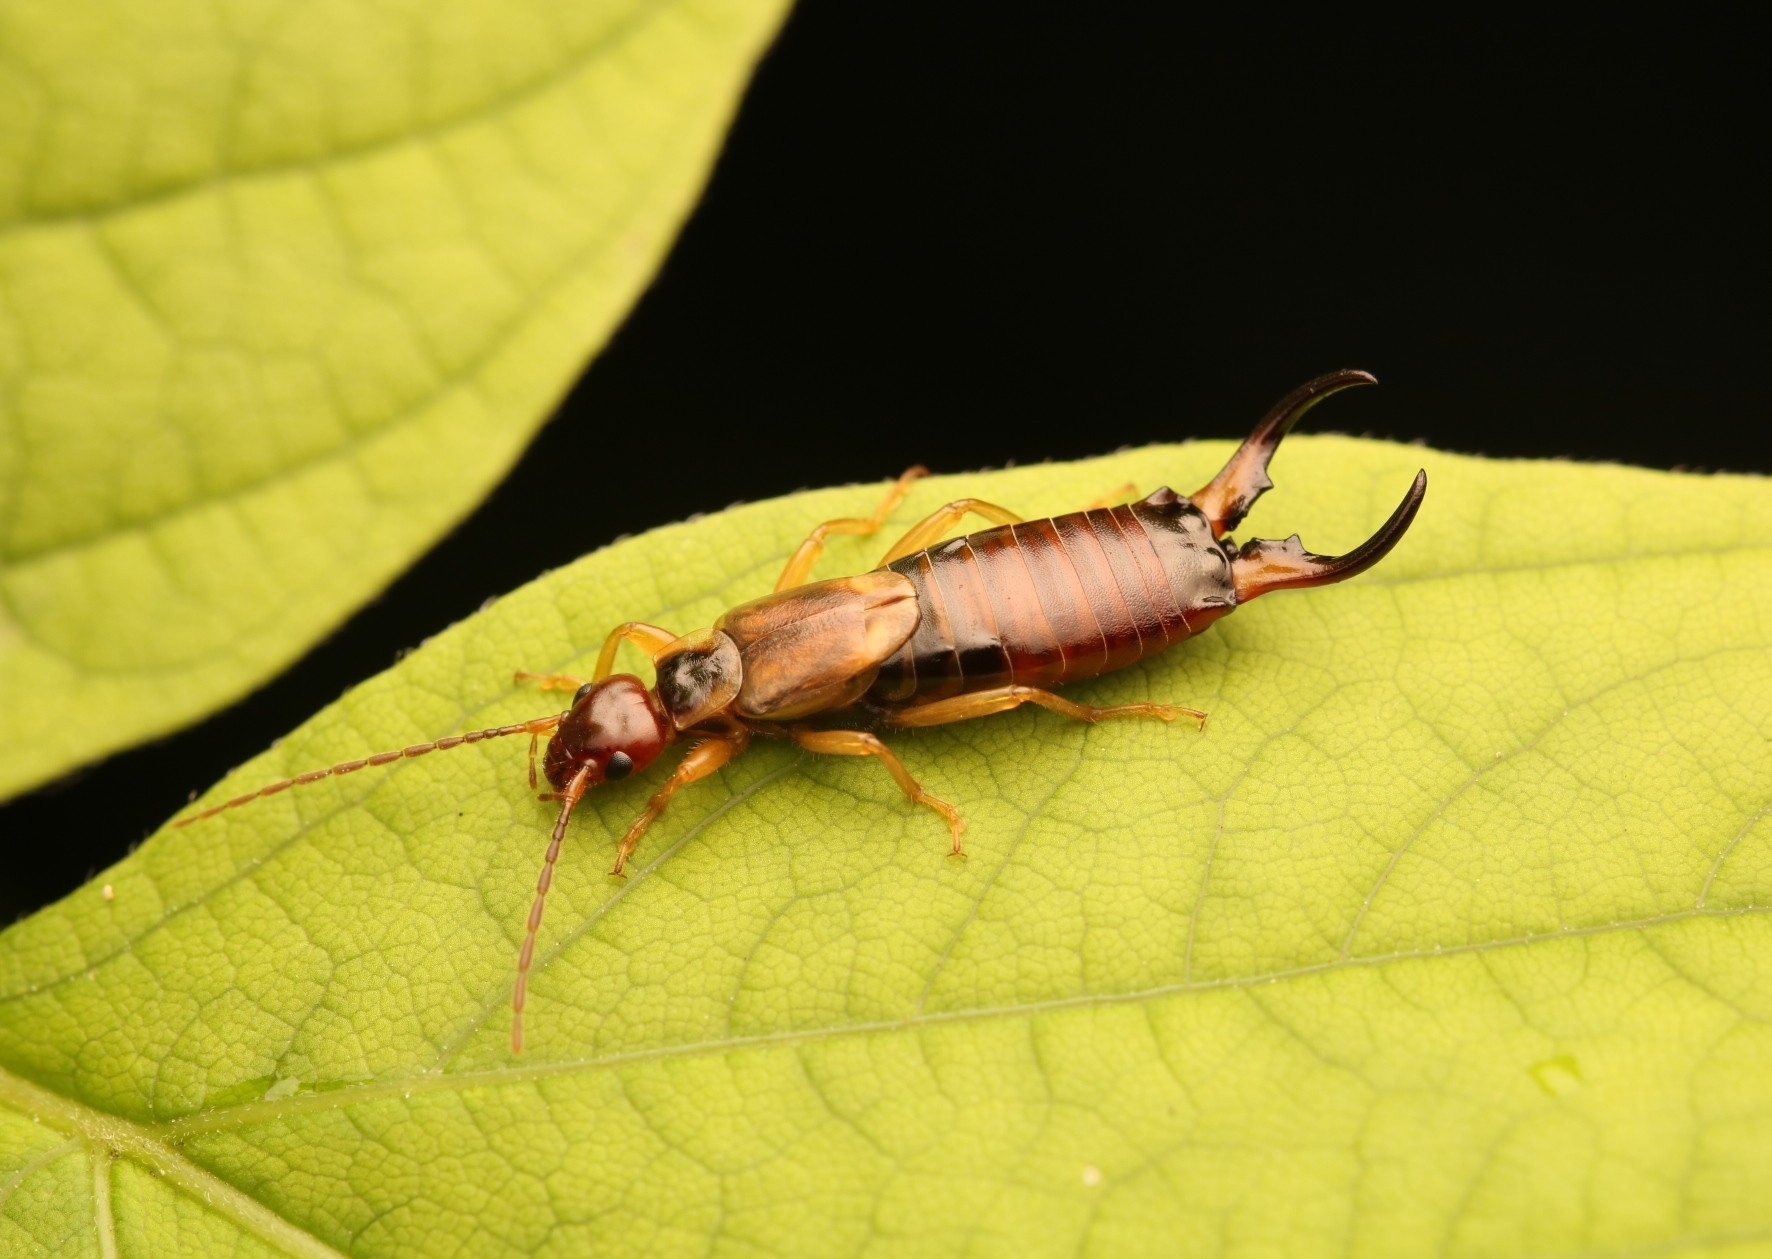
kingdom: Animalia
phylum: Arthropoda
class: Insecta
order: Dermaptera
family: Forficulidae
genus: Forficula
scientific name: Forficula
